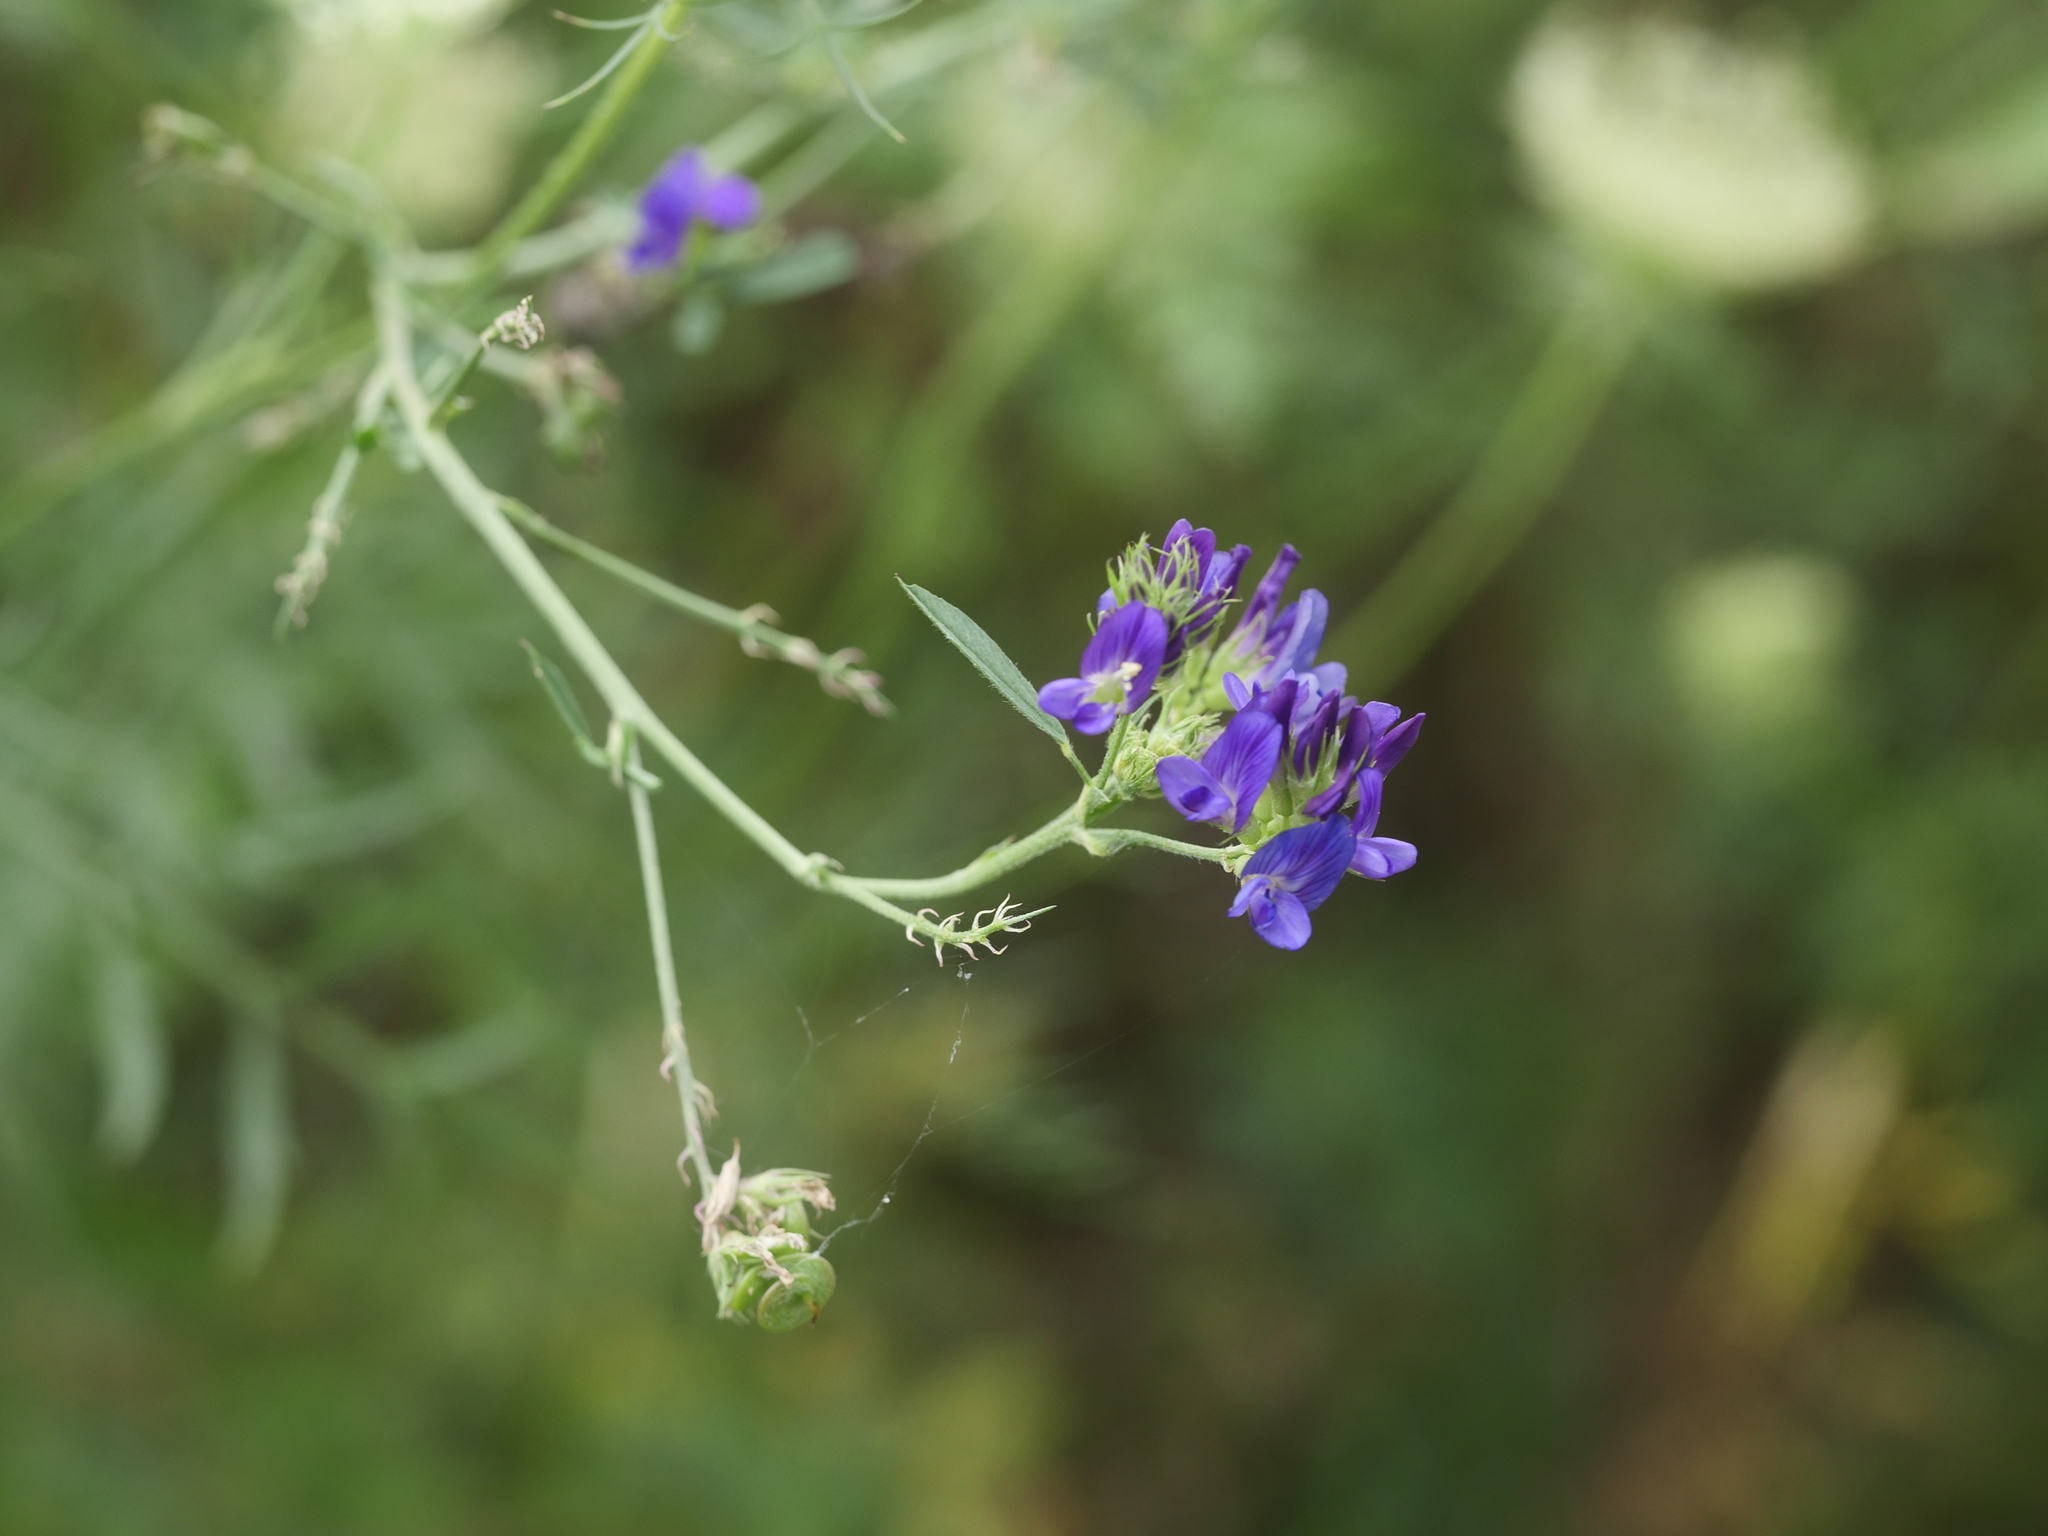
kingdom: Plantae
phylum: Tracheophyta
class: Magnoliopsida
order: Fabales
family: Fabaceae
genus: Medicago
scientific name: Medicago sativa
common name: Alfalfa
